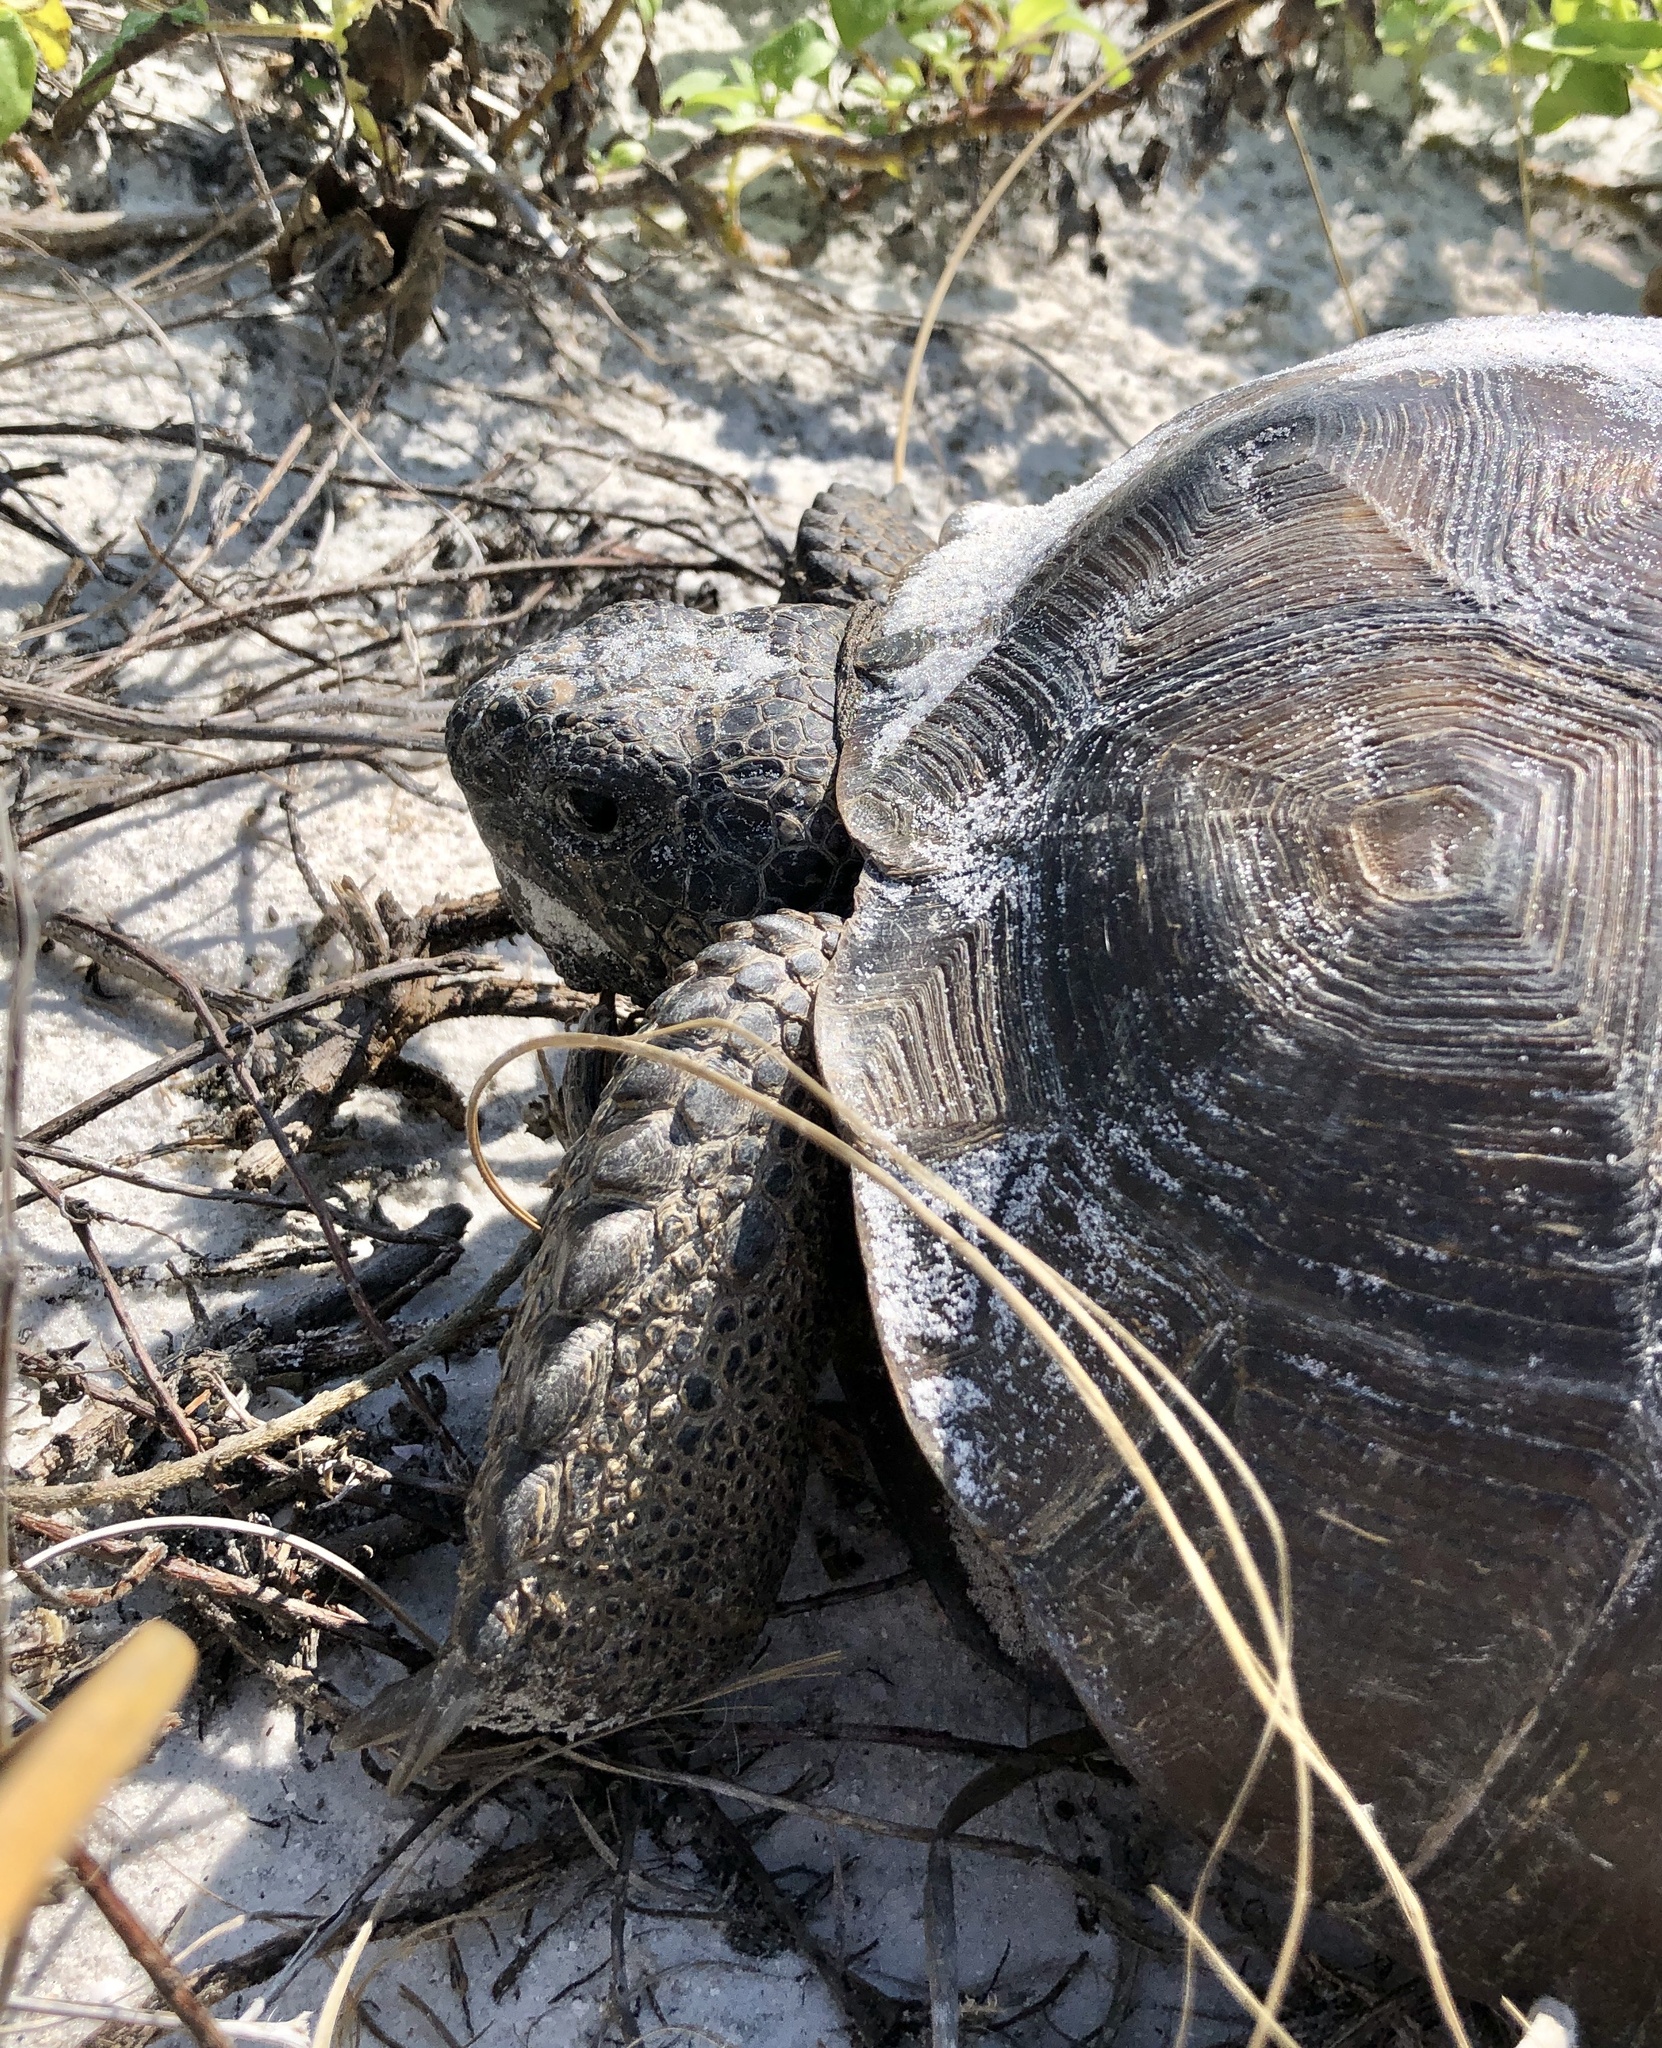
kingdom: Animalia
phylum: Chordata
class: Testudines
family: Testudinidae
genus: Gopherus
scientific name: Gopherus polyphemus
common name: Florida gopher tortoise
